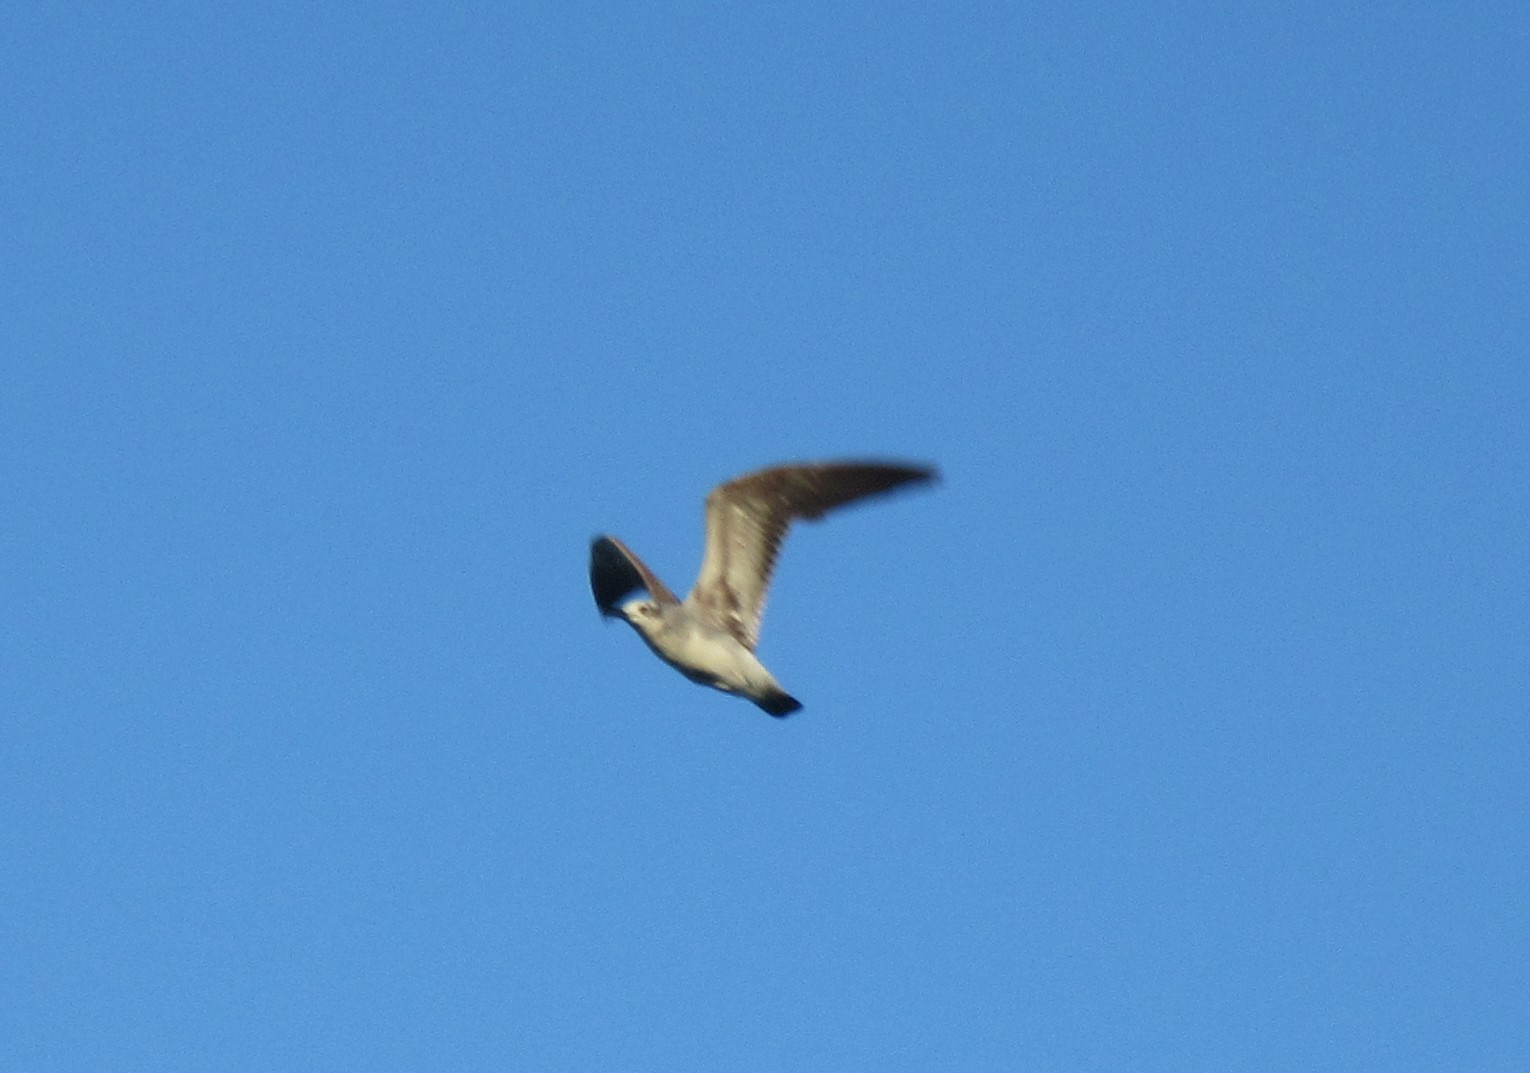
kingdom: Animalia
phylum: Chordata
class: Aves
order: Charadriiformes
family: Laridae
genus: Leucophaeus
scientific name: Leucophaeus atricilla
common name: Laughing gull
